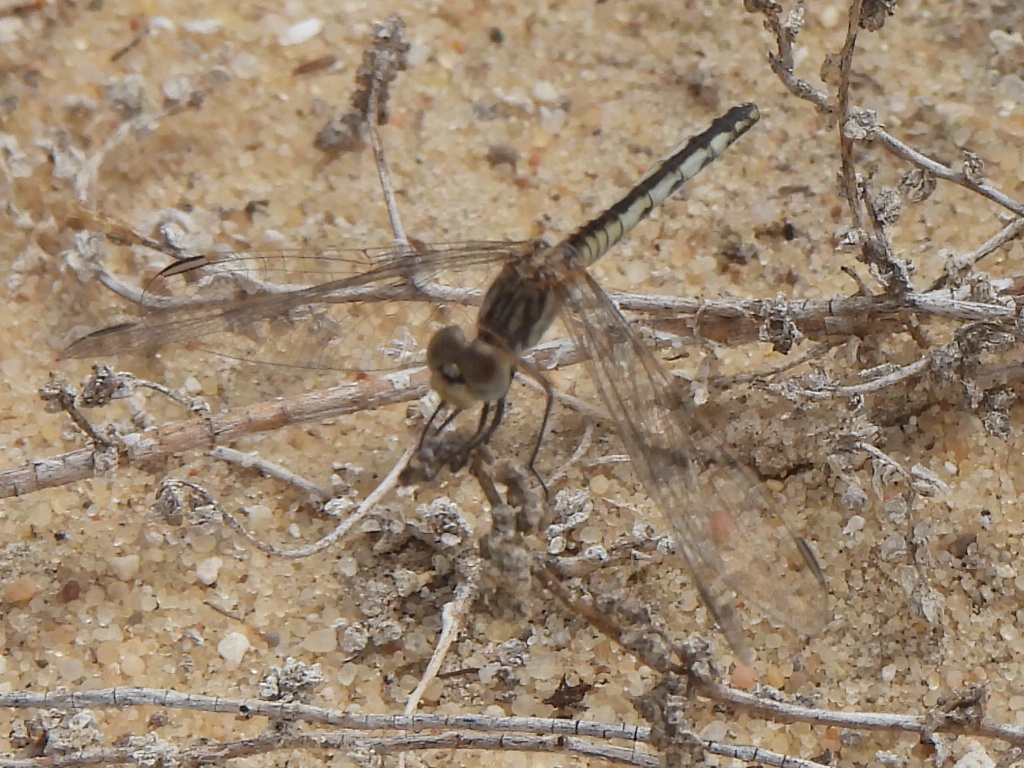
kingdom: Animalia
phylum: Arthropoda
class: Insecta
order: Odonata
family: Libellulidae
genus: Diplacodes
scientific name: Diplacodes lefebvrii
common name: Black percher
